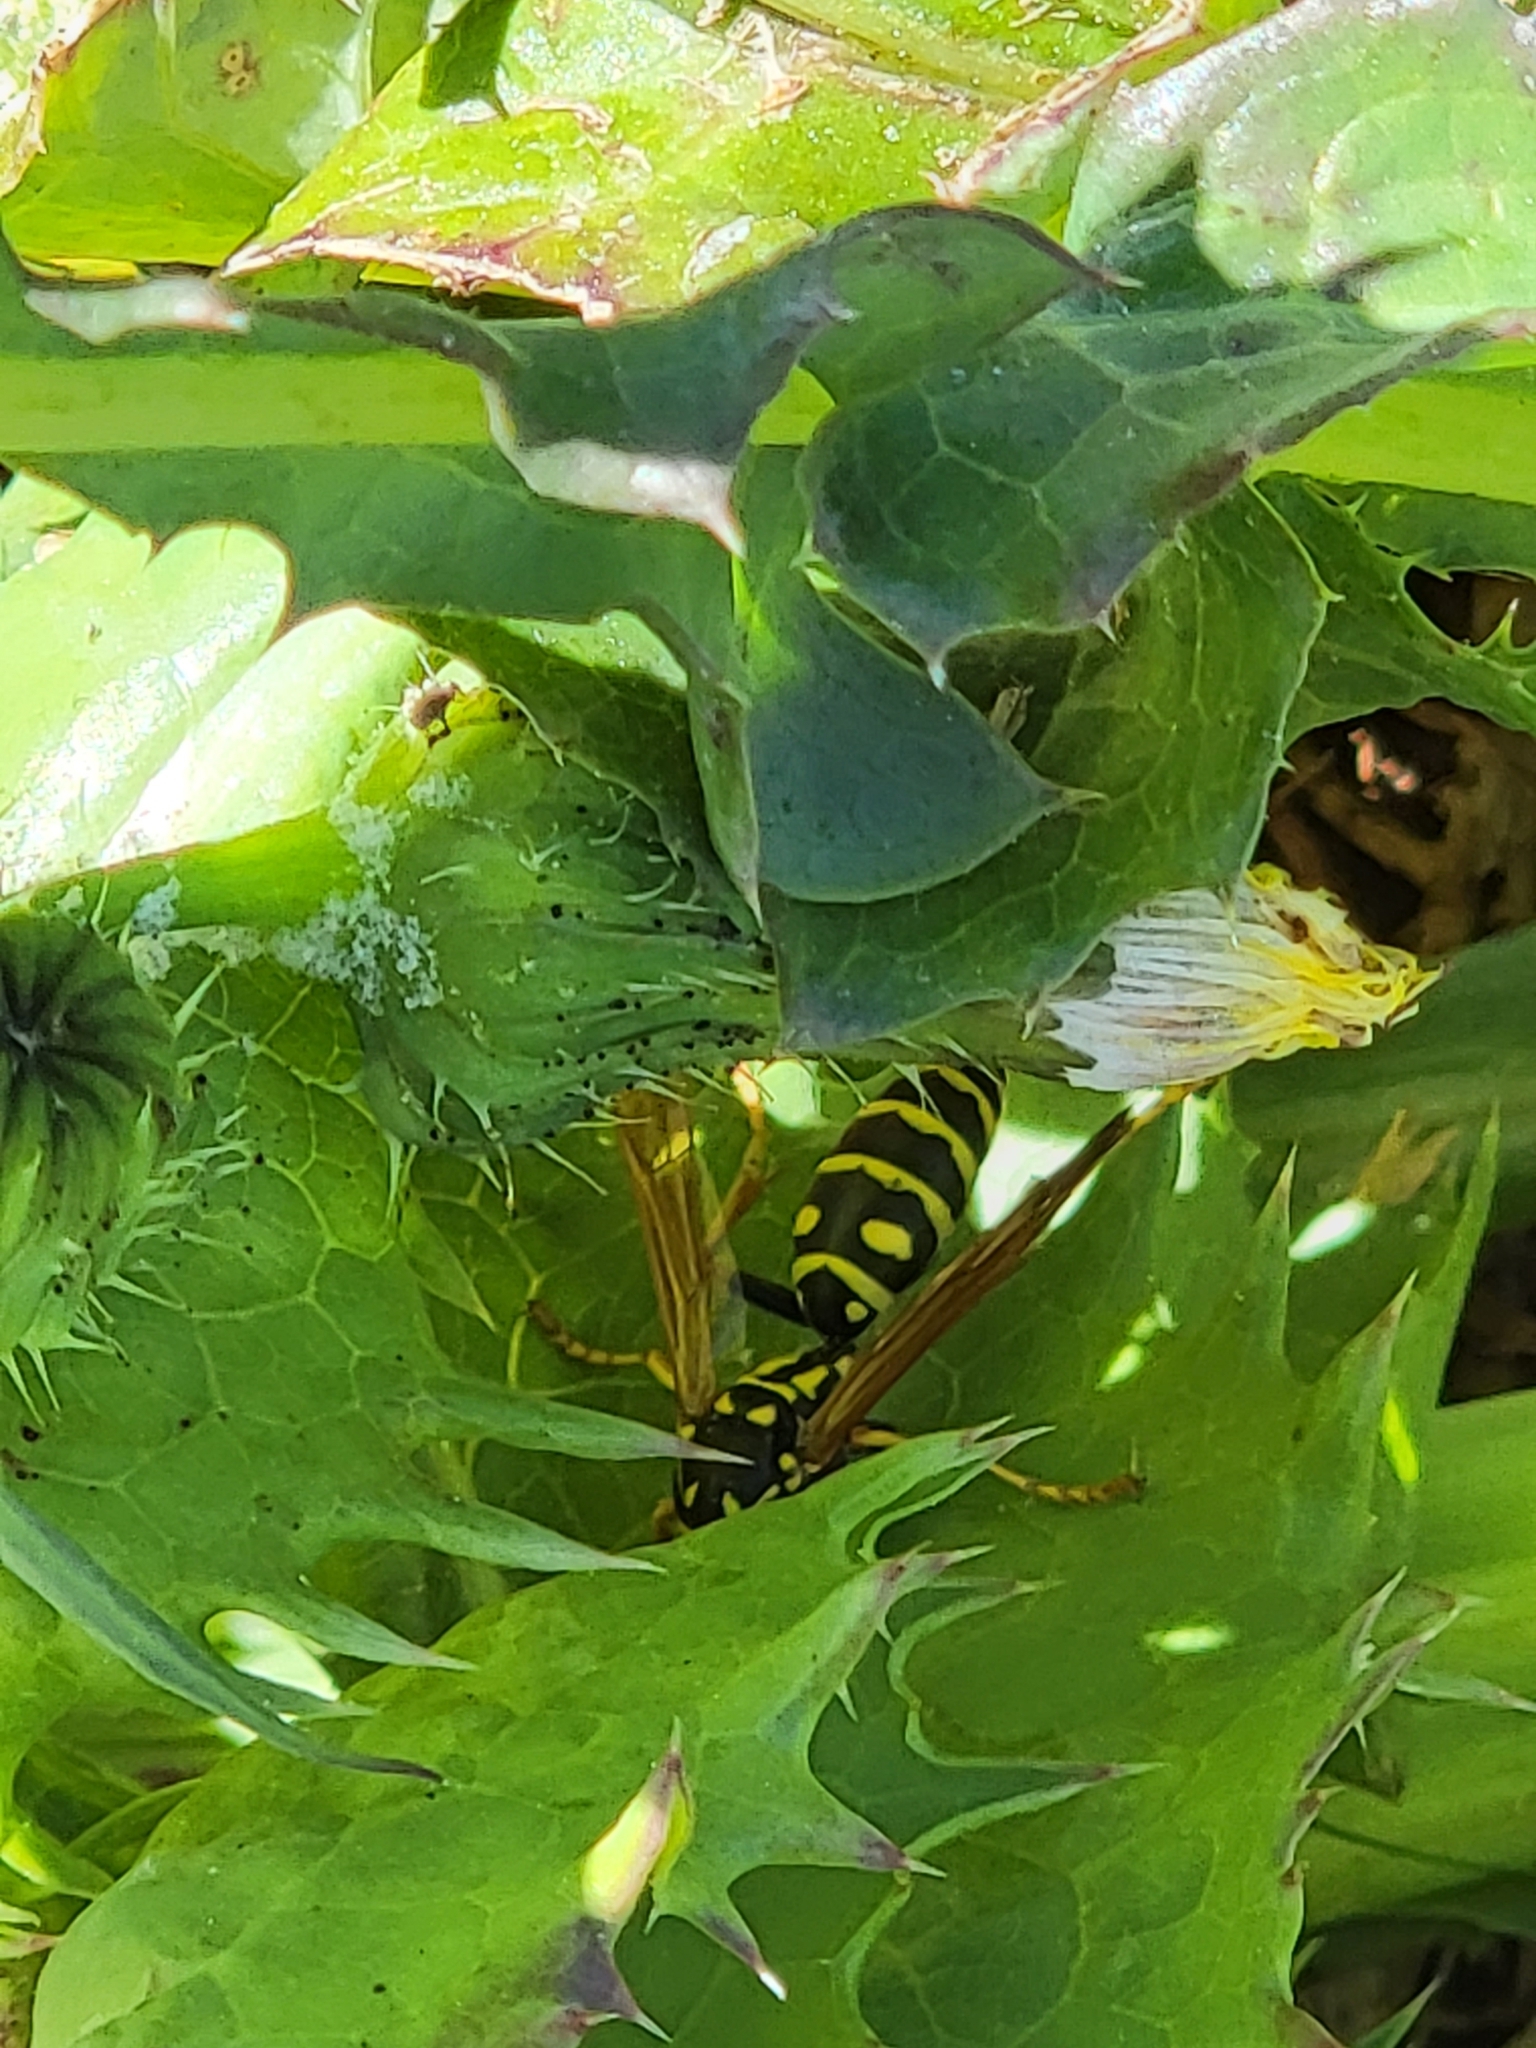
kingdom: Animalia
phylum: Arthropoda
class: Insecta
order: Hymenoptera
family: Eumenidae
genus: Polistes
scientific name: Polistes dominula
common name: Paper wasp
